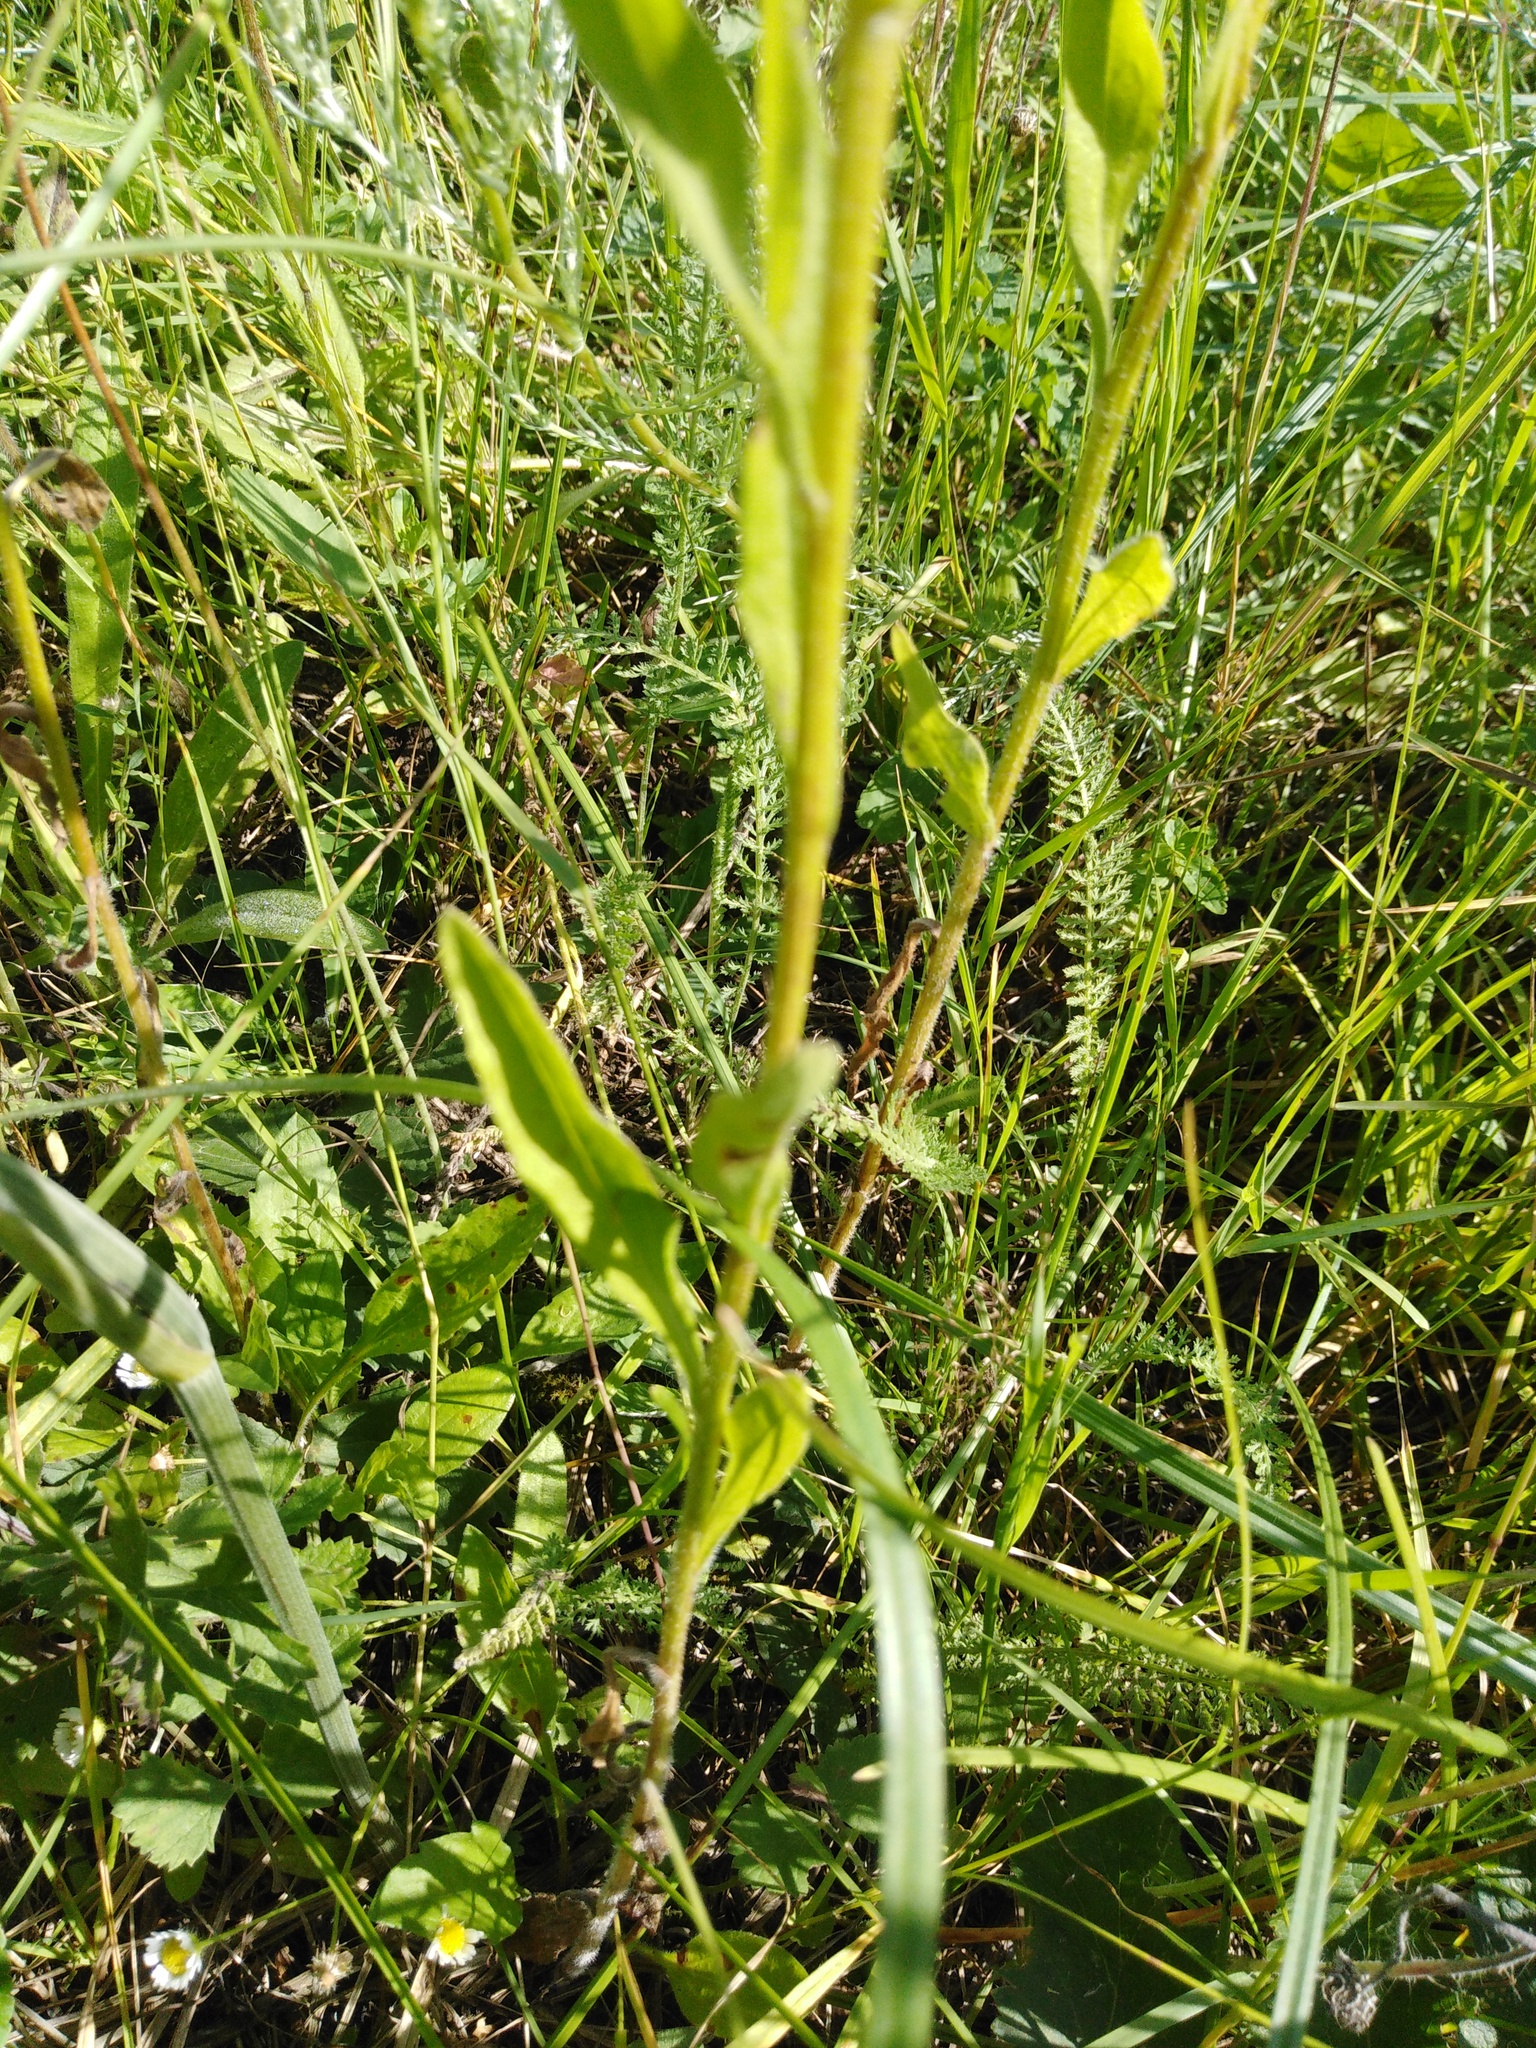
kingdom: Plantae
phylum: Tracheophyta
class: Magnoliopsida
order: Asterales
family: Asteraceae
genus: Erigeron
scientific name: Erigeron annuus
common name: Tall fleabane
